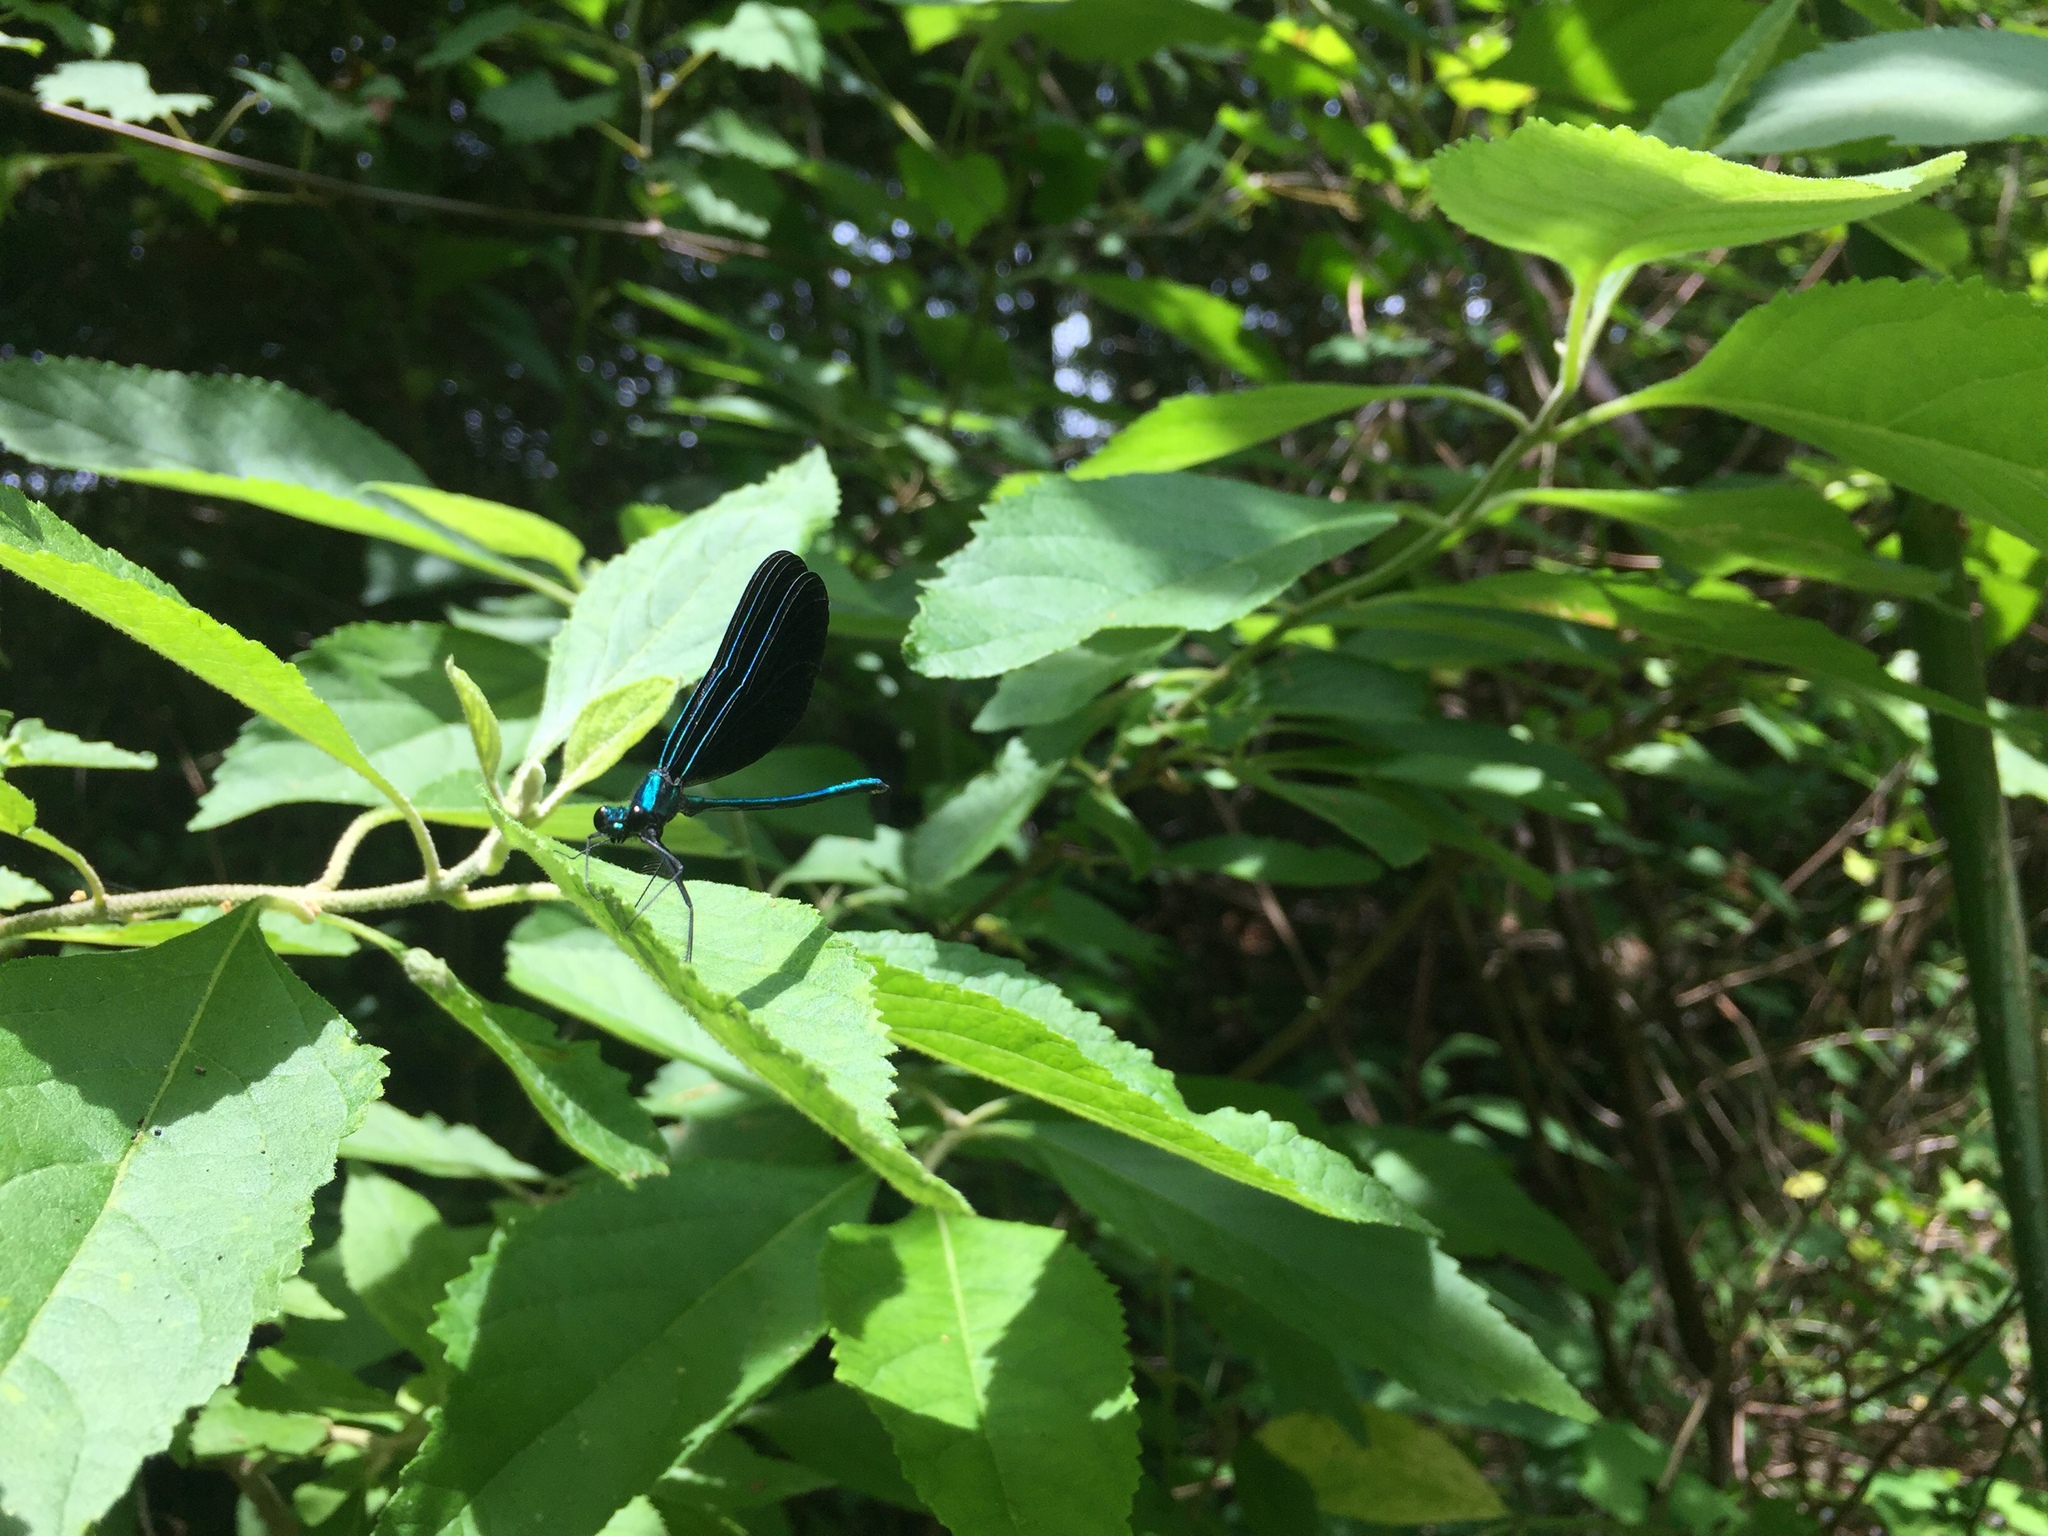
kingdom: Animalia
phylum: Arthropoda
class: Insecta
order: Odonata
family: Calopterygidae
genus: Calopteryx
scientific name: Calopteryx maculata
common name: Ebony jewelwing
